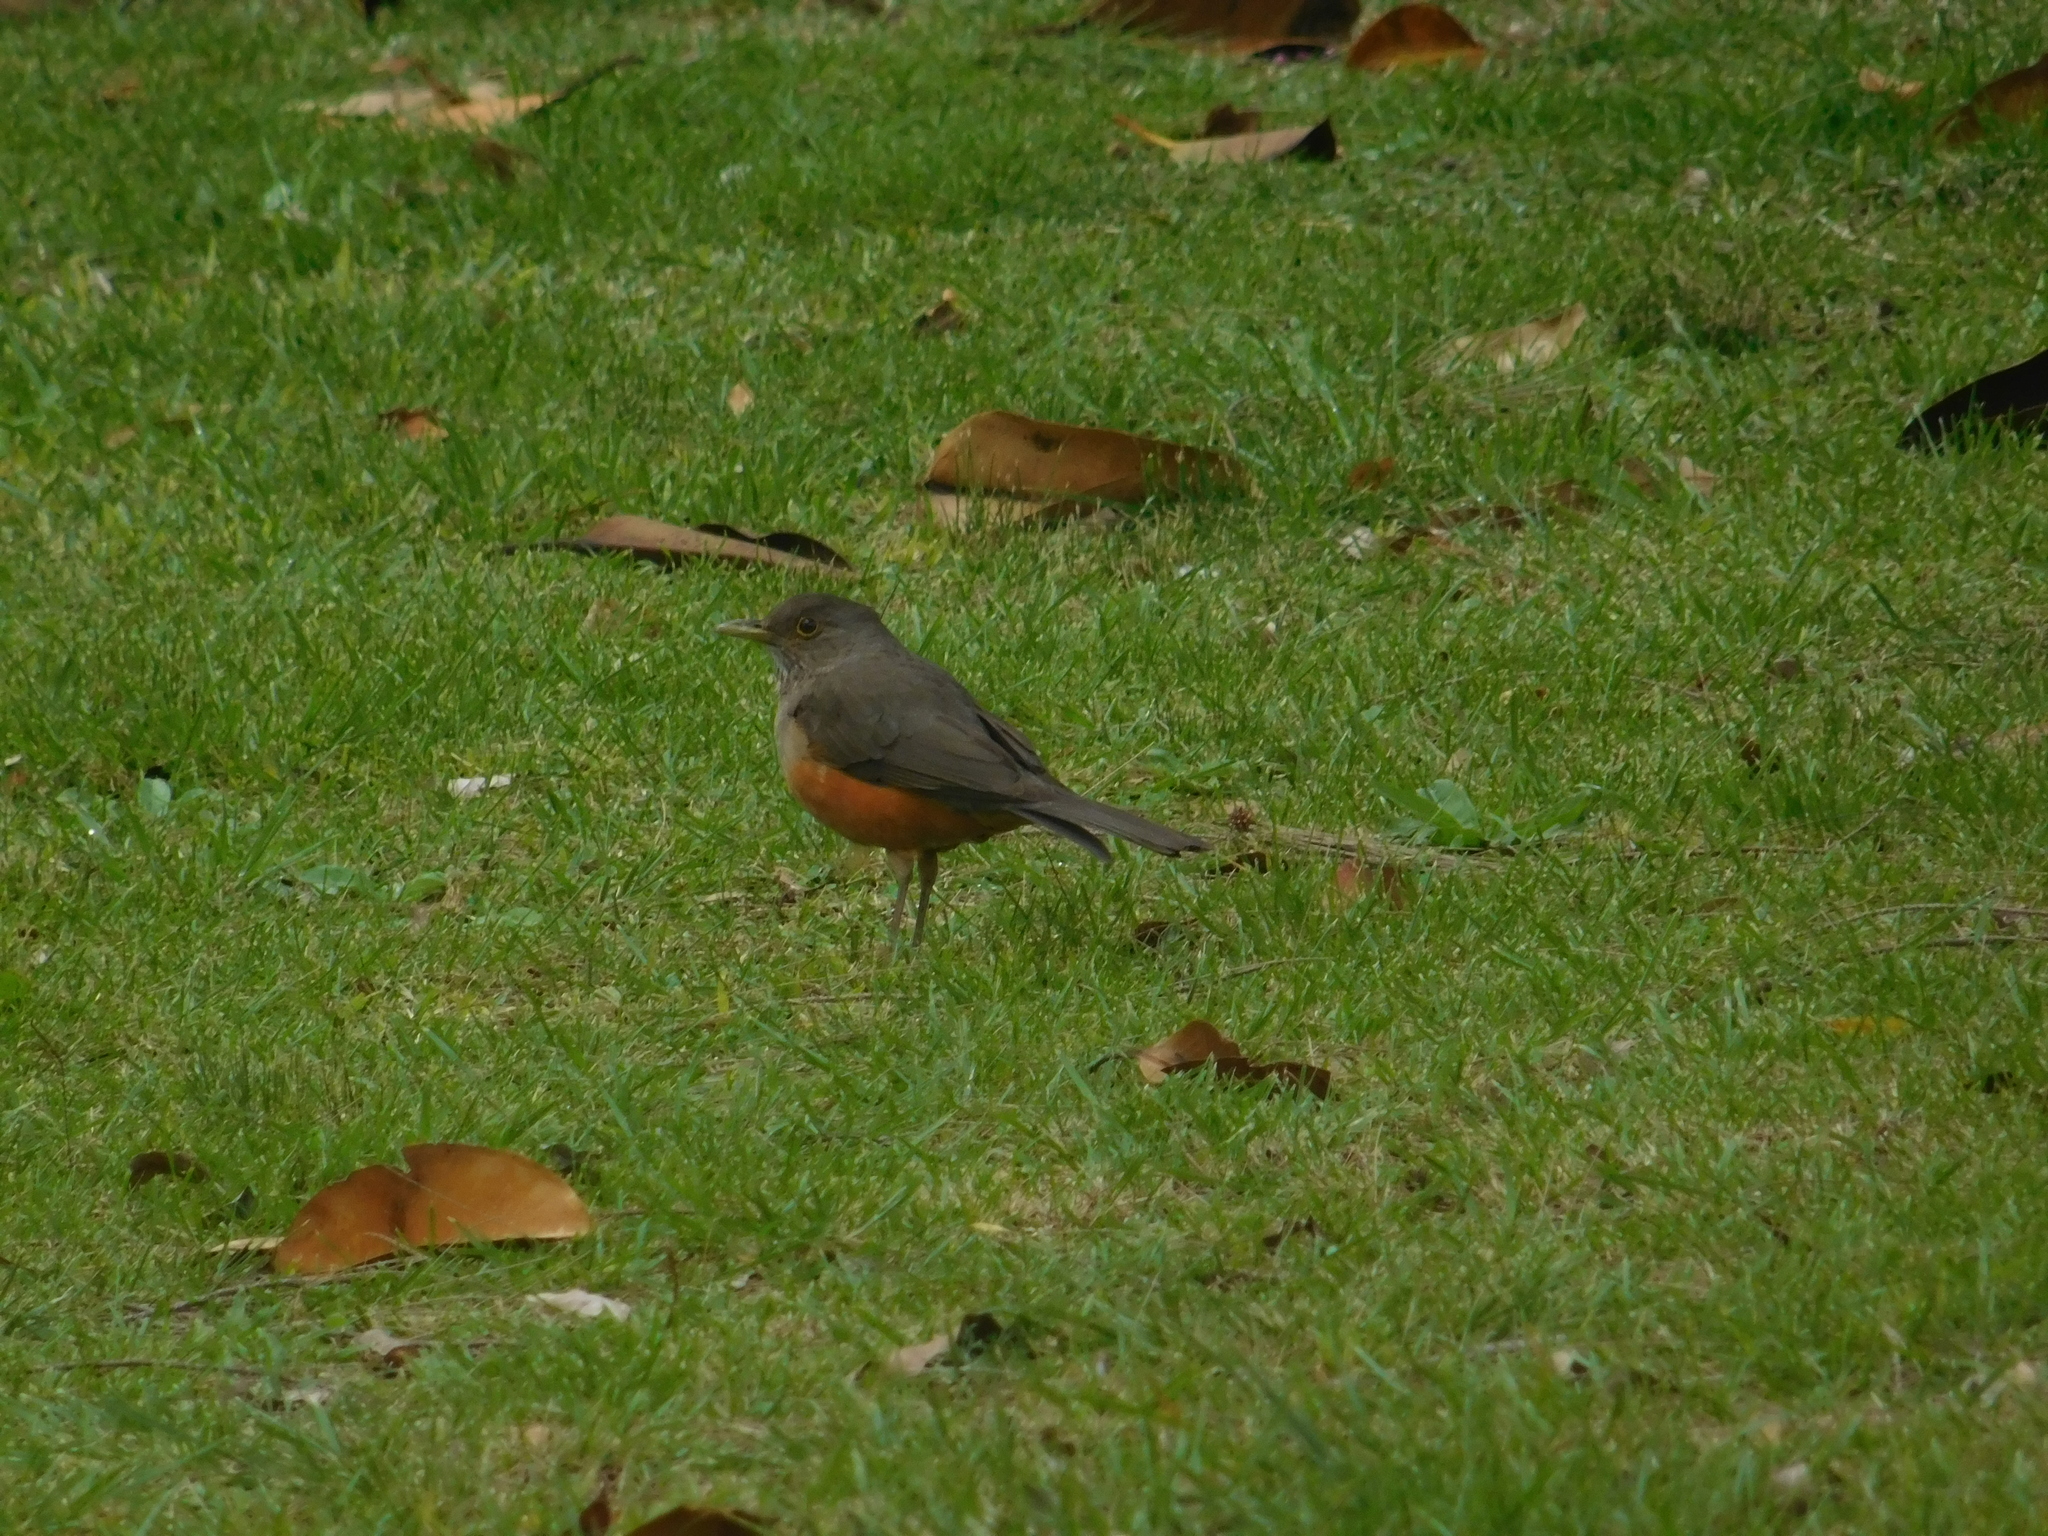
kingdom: Animalia
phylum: Chordata
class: Aves
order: Passeriformes
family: Turdidae
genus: Turdus
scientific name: Turdus rufiventris
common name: Rufous-bellied thrush
